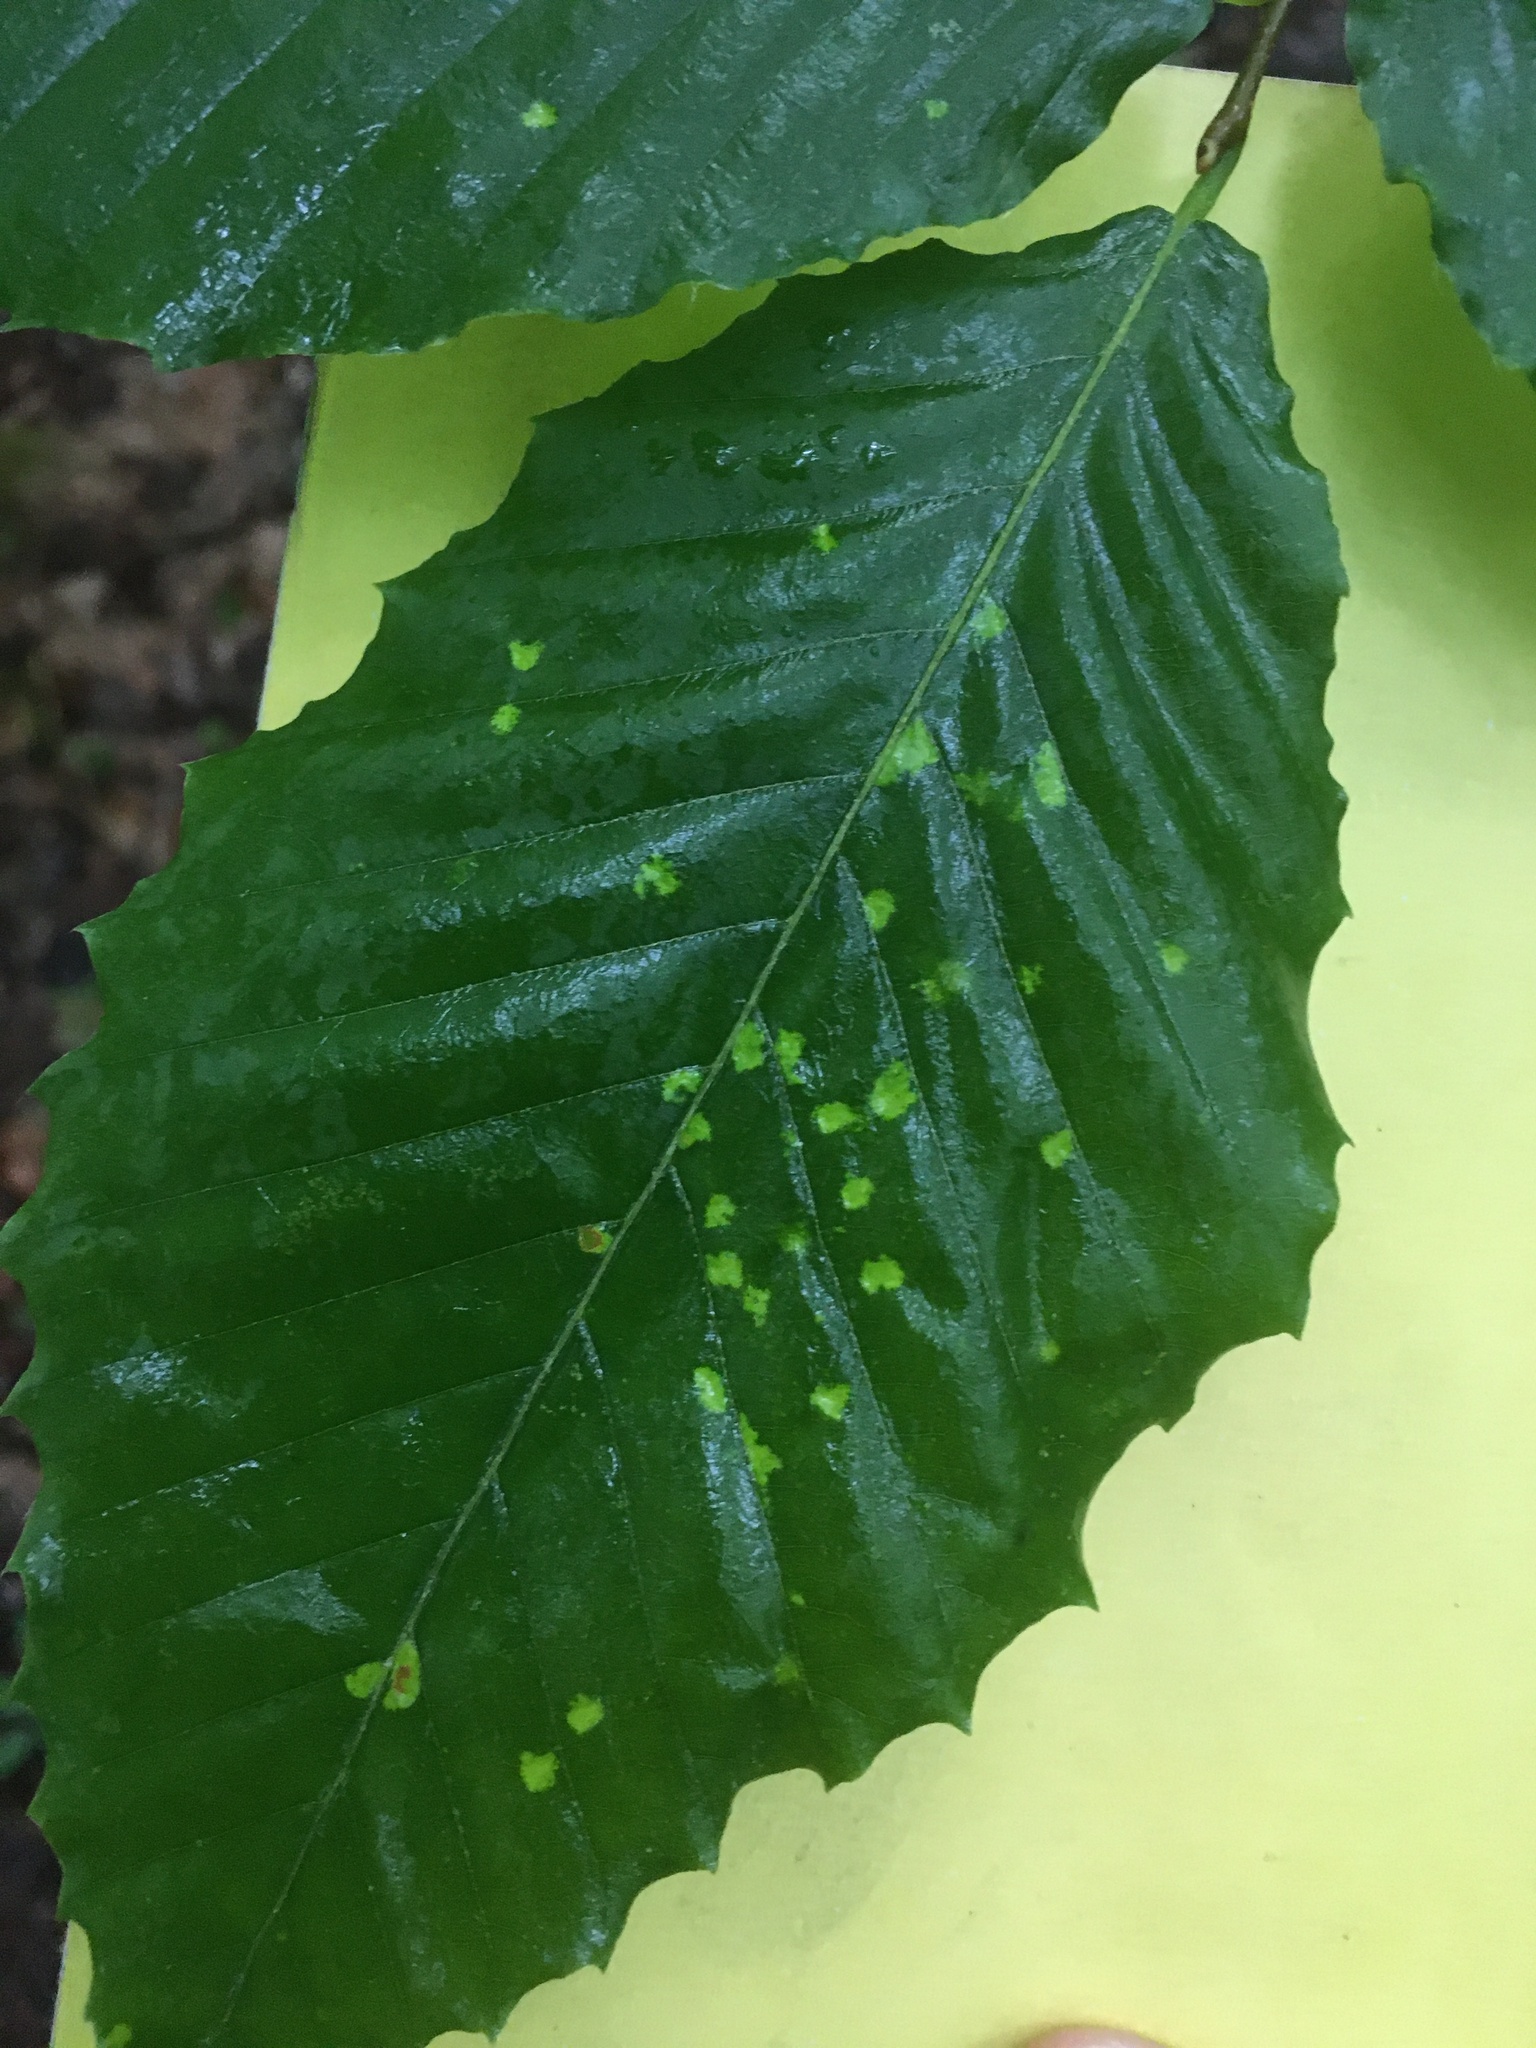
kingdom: Animalia
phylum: Arthropoda
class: Arachnida
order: Trombidiformes
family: Eriophyidae
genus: Acalitus
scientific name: Acalitus
